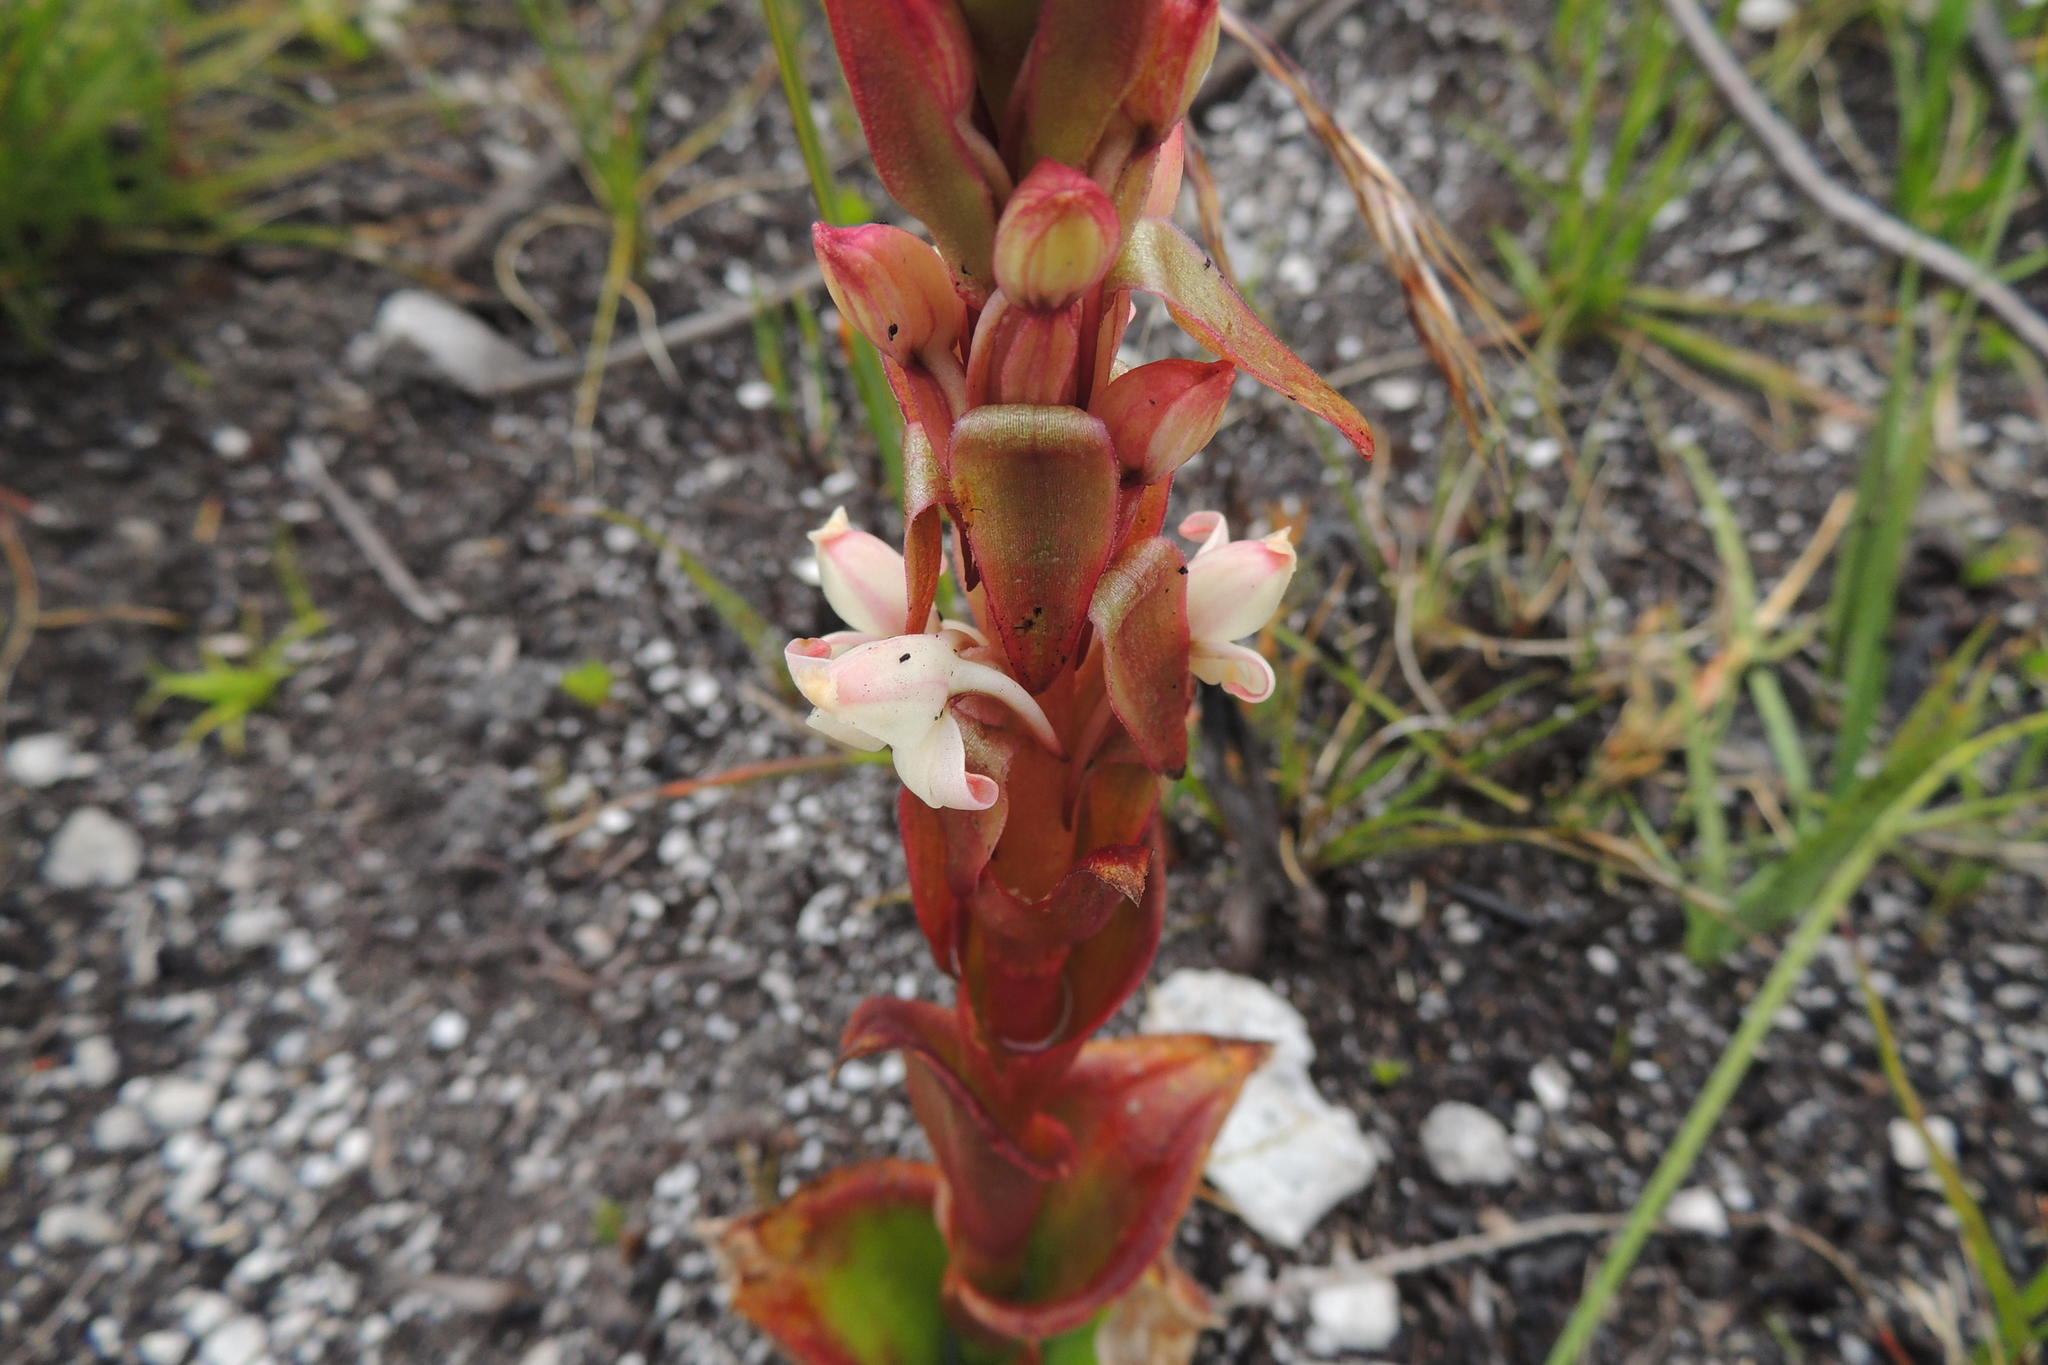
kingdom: Plantae
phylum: Tracheophyta
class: Liliopsida
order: Asparagales
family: Orchidaceae
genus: Satyrium
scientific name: Satyrium acuminatum
